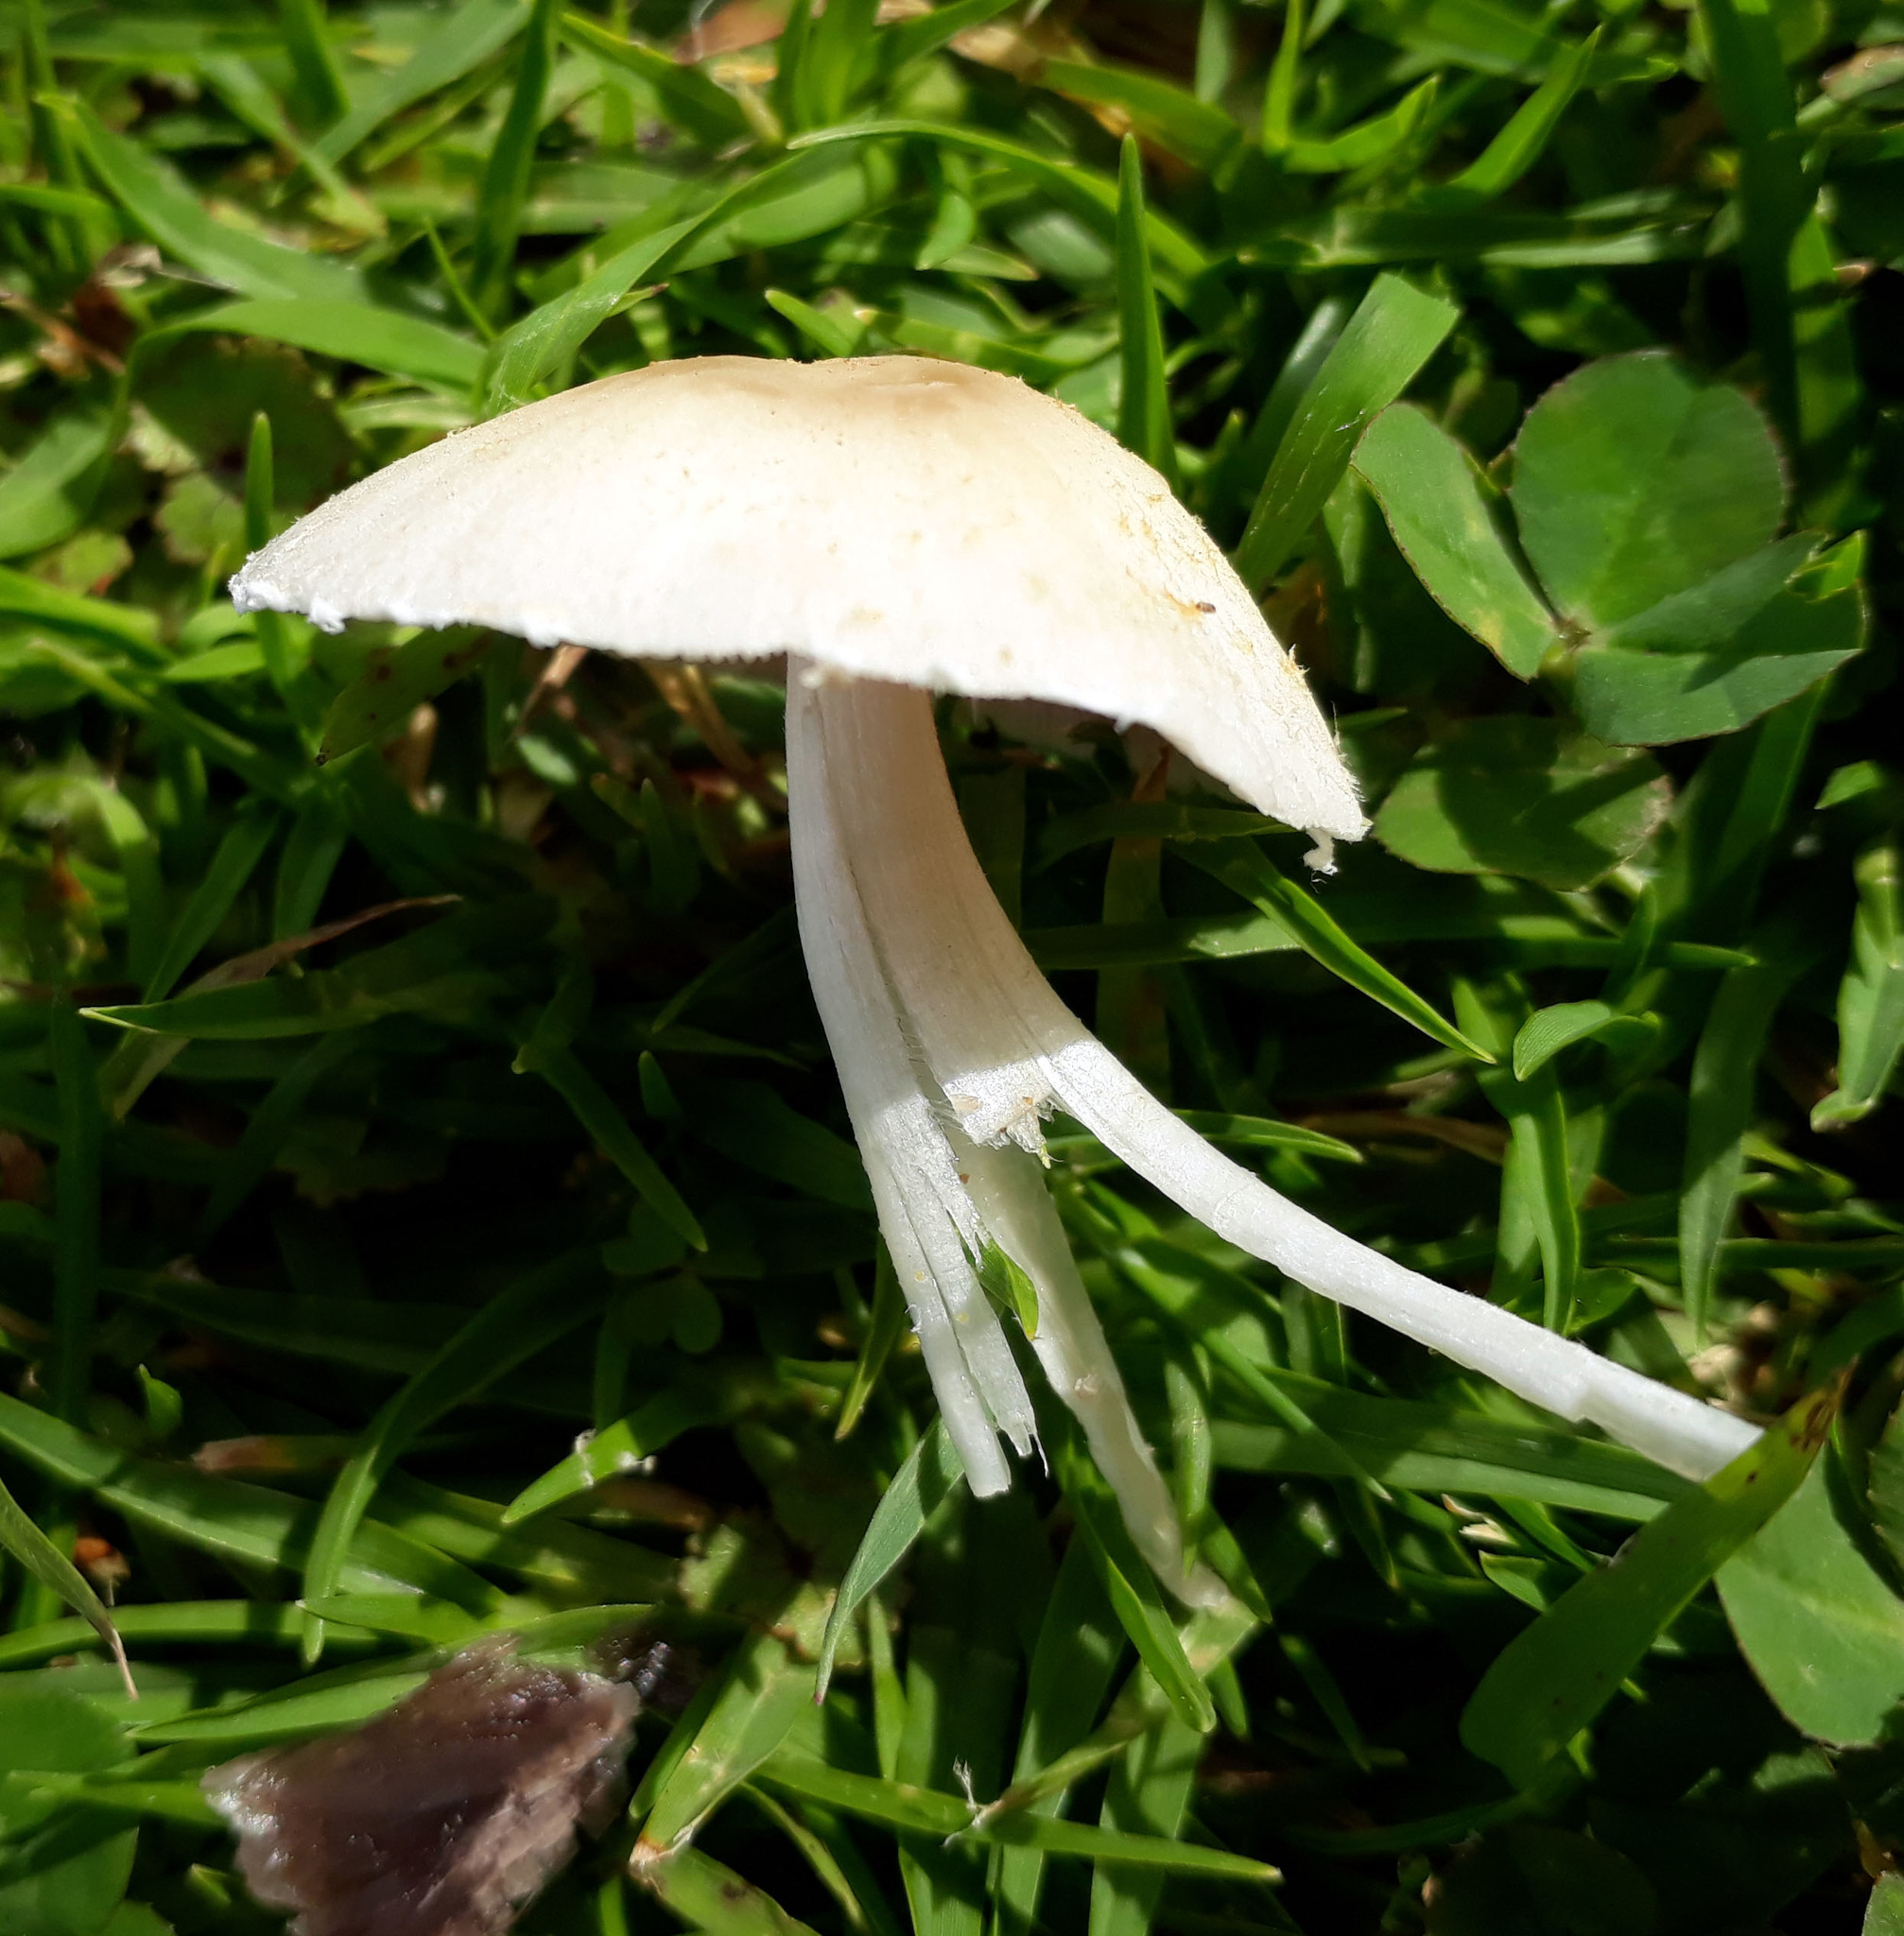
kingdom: Fungi
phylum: Basidiomycota
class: Agaricomycetes
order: Agaricales
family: Psathyrellaceae
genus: Candolleomyces
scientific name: Candolleomyces candolleanus
